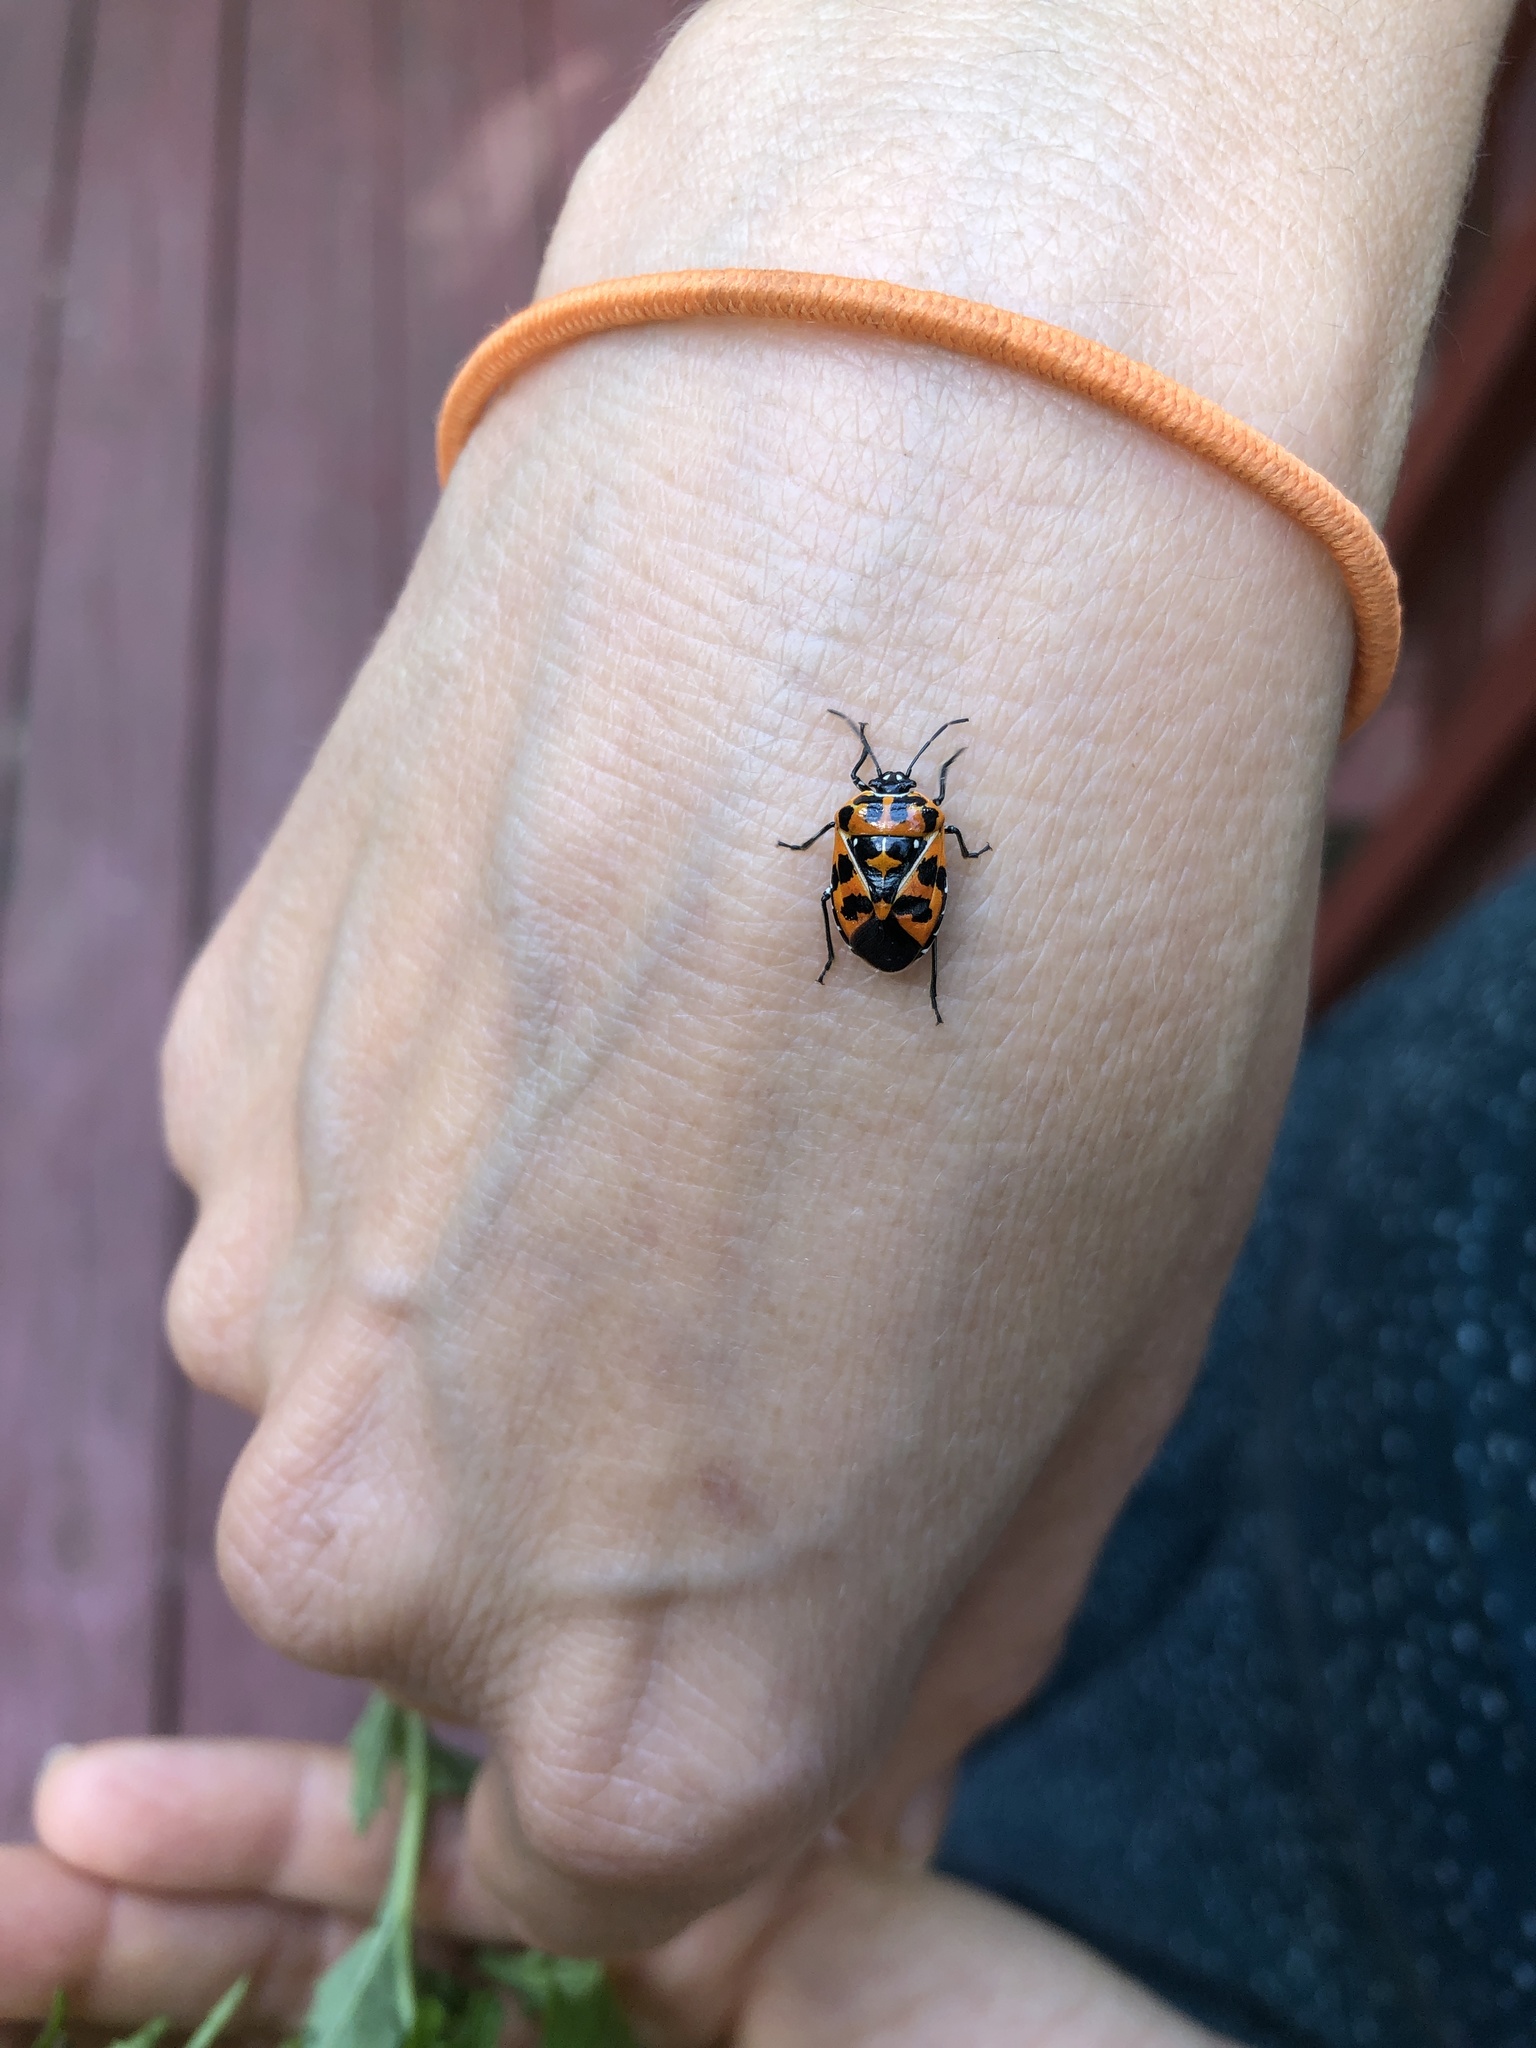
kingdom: Animalia
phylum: Arthropoda
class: Insecta
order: Hemiptera
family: Pentatomidae
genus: Murgantia
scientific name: Murgantia histrionica
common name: Harlequin bug
